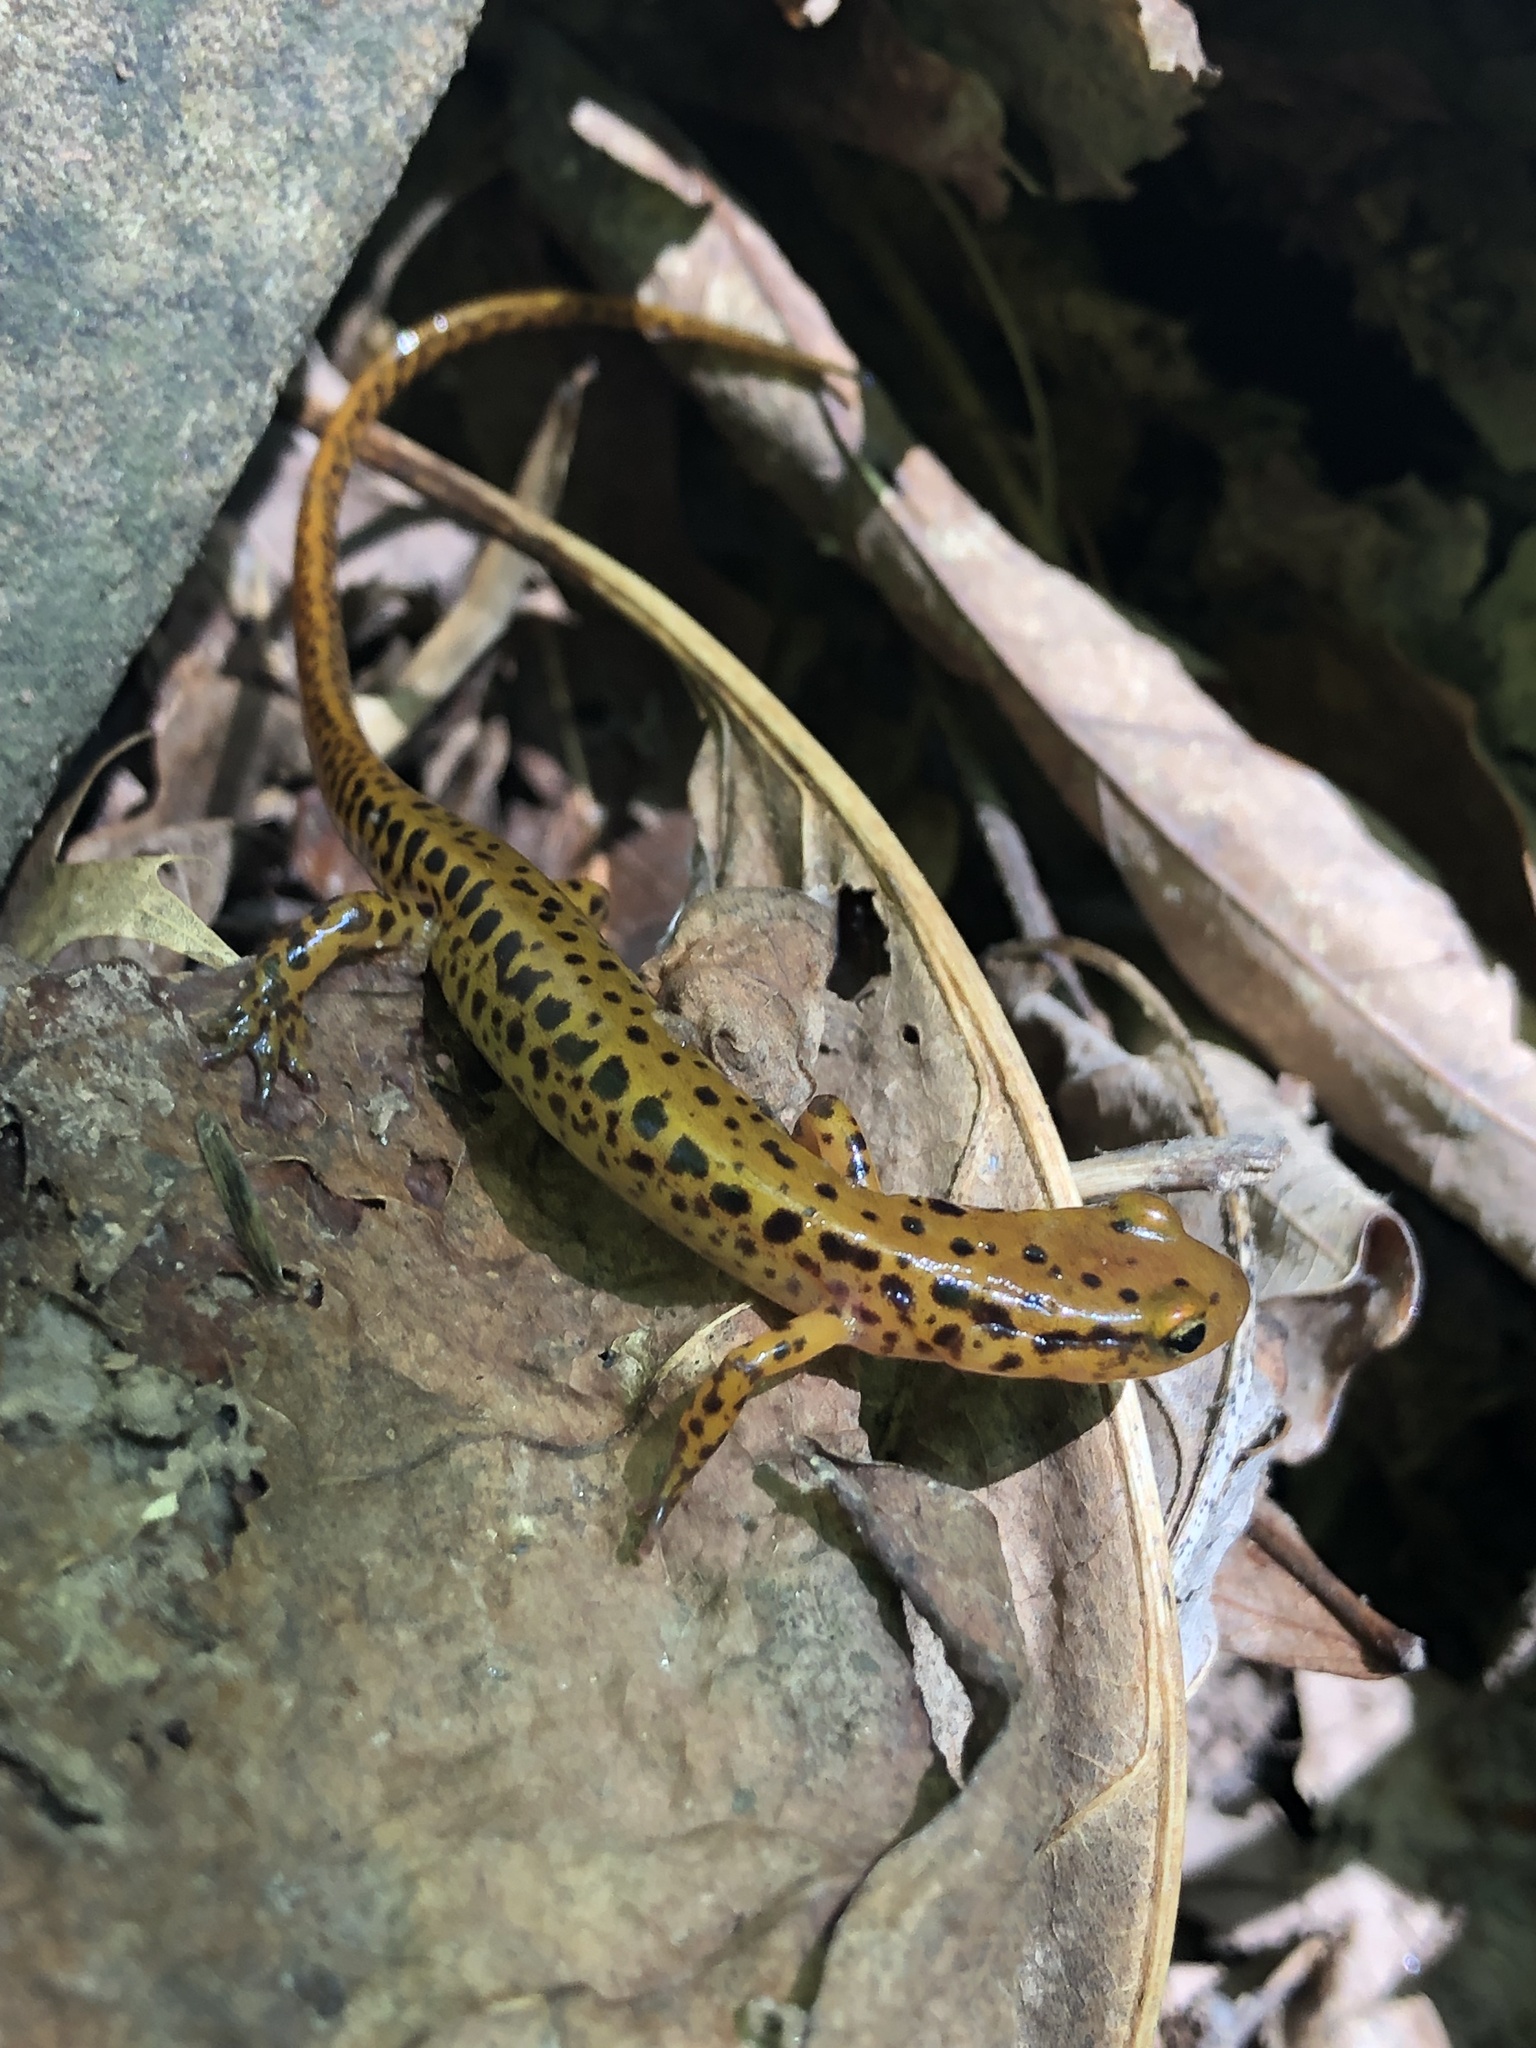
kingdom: Animalia
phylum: Chordata
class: Amphibia
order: Caudata
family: Plethodontidae
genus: Eurycea
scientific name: Eurycea longicauda
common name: Long-tailed salamander
